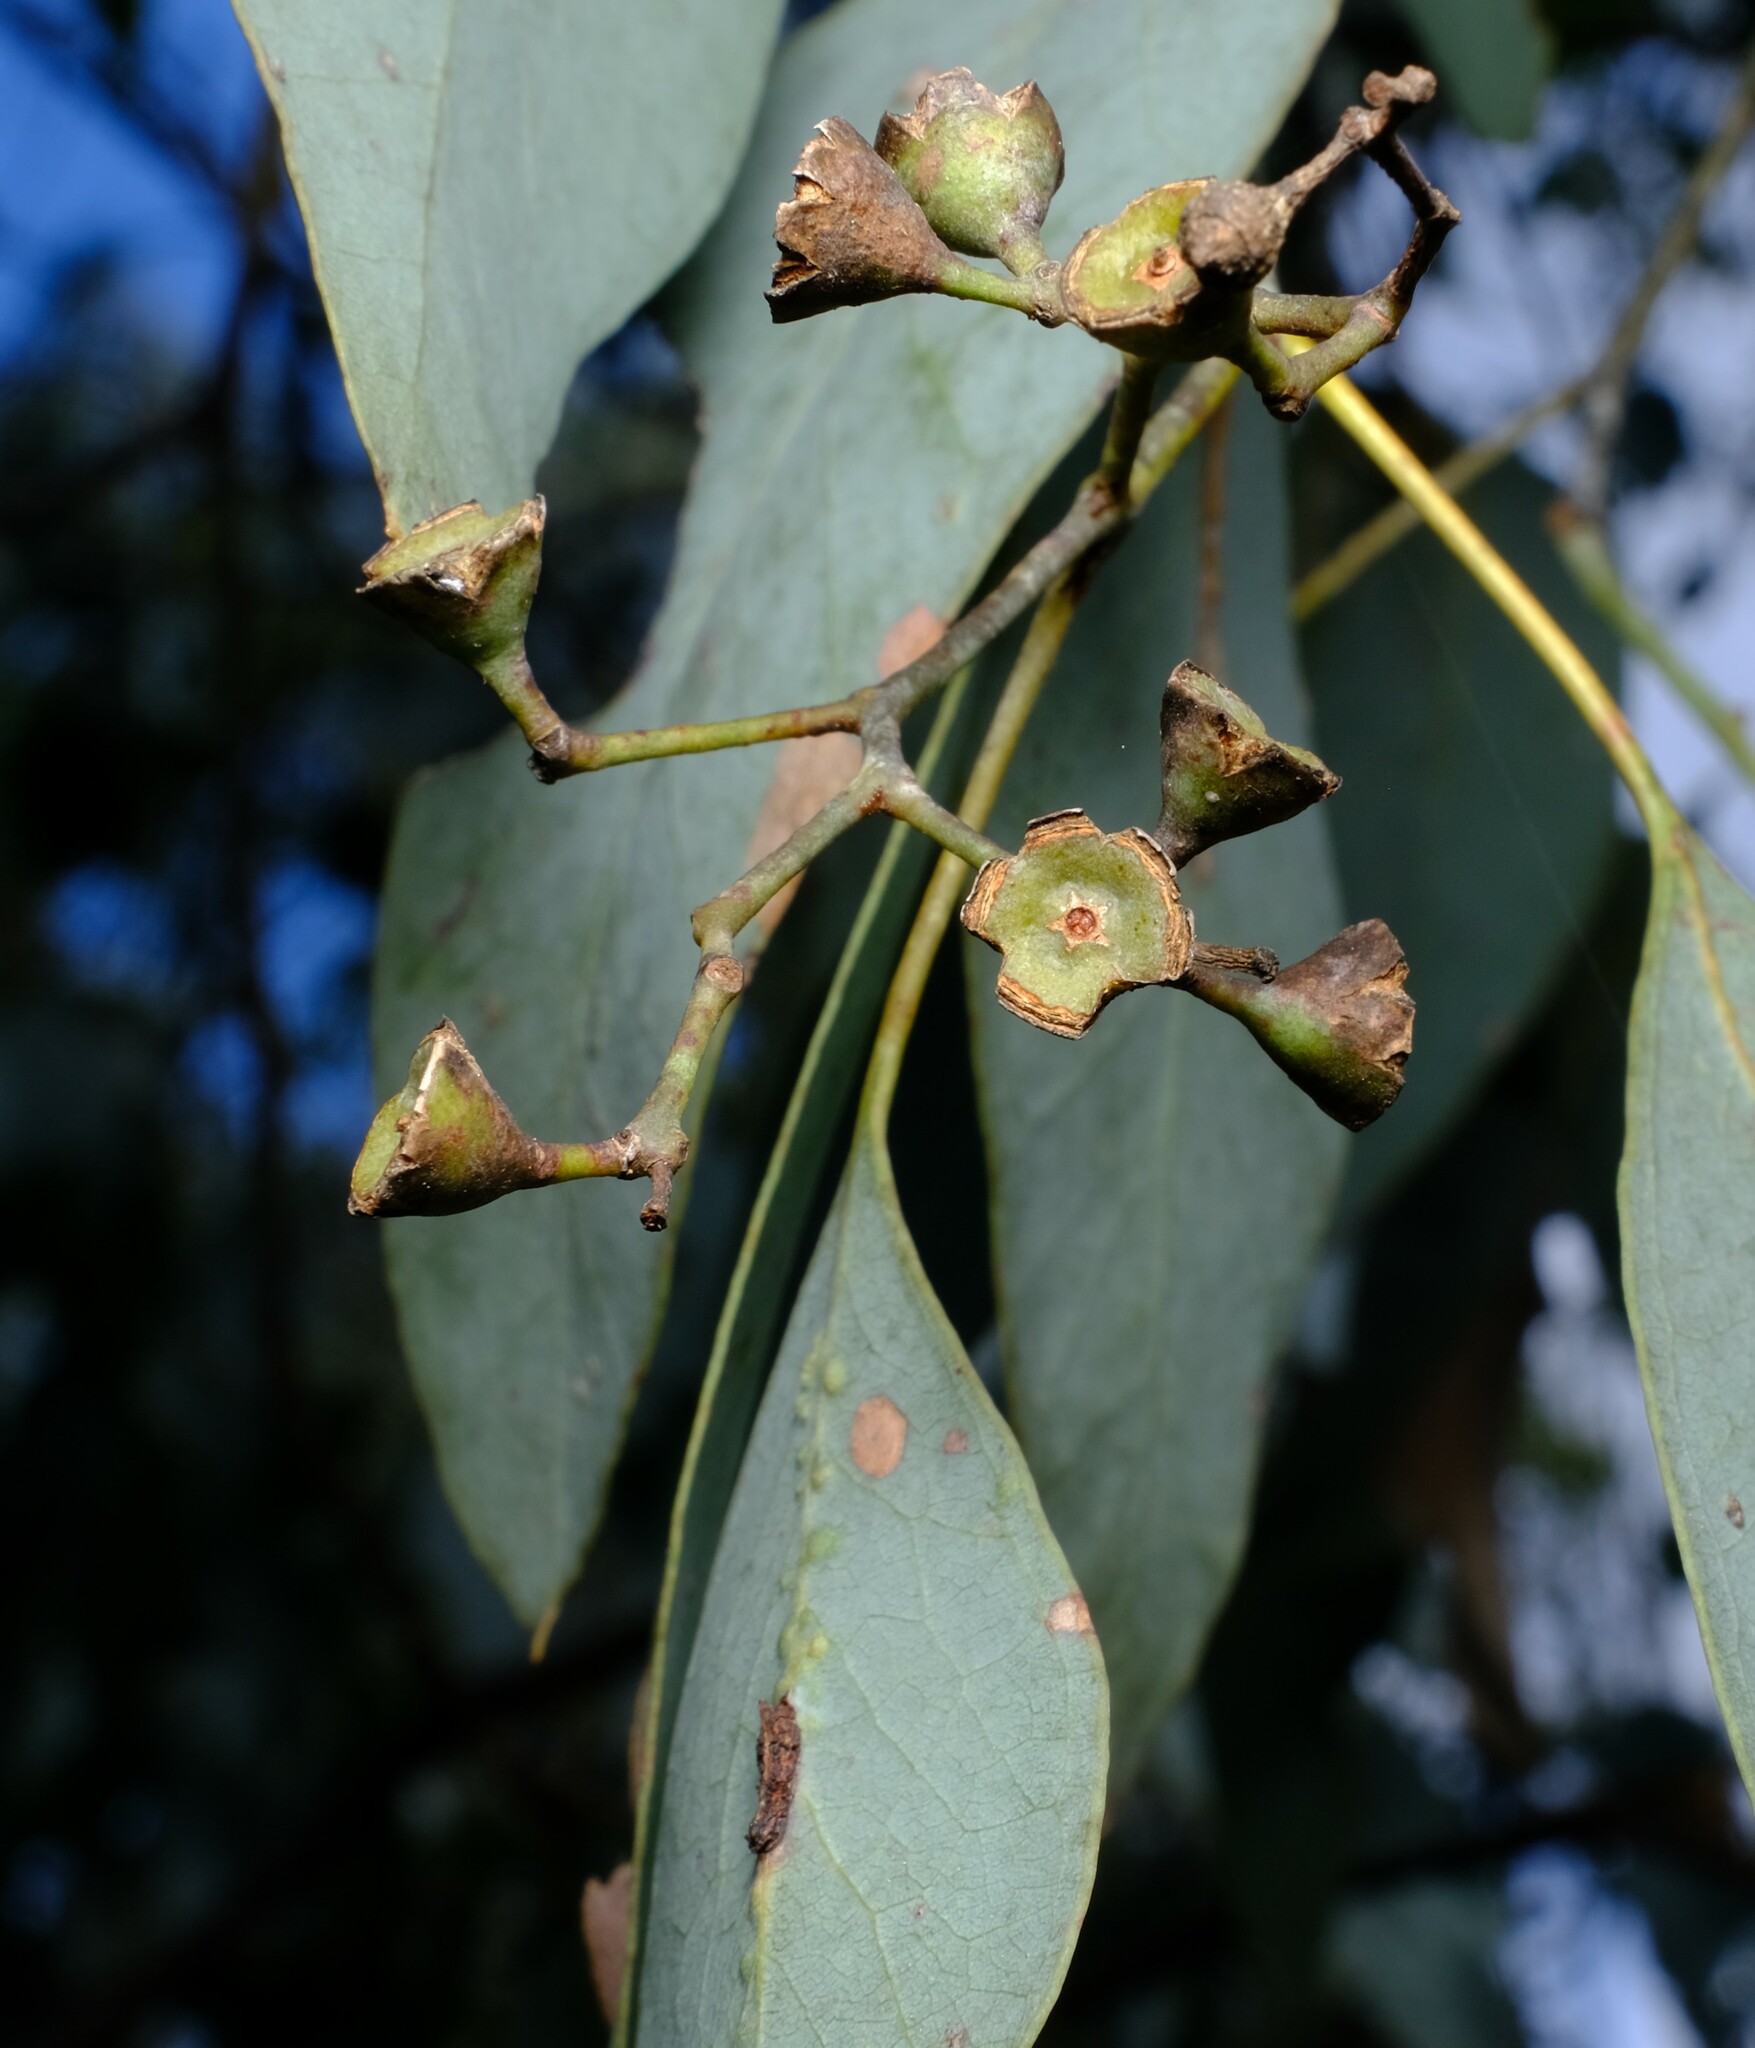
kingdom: Plantae
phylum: Tracheophyta
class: Magnoliopsida
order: Myrtales
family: Myrtaceae
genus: Eucalyptus
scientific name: Eucalyptus polyanthemos
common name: Red-box
